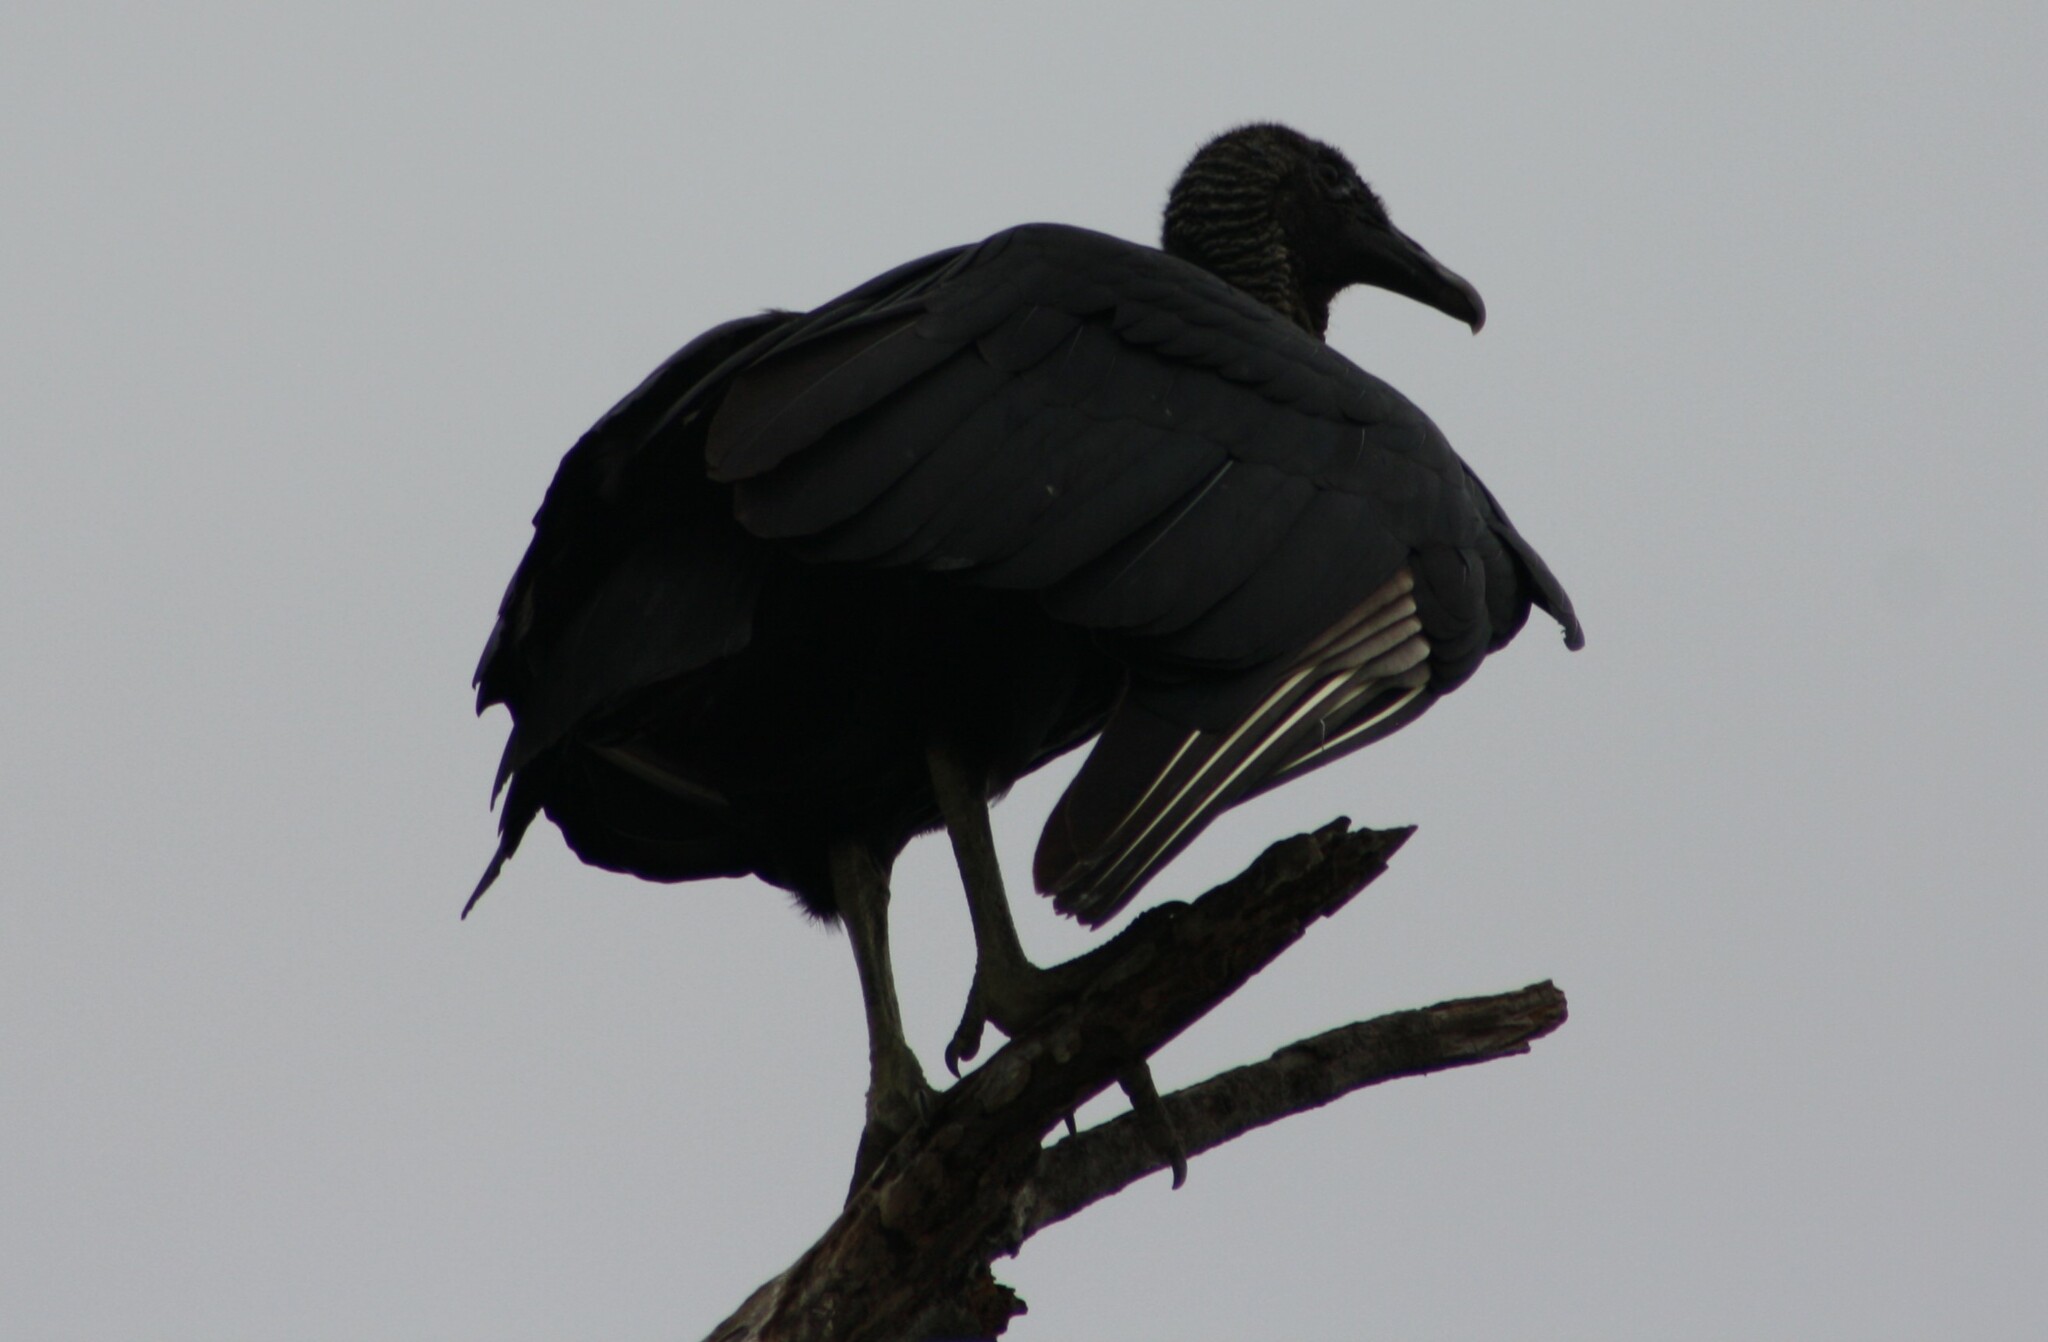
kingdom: Animalia
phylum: Chordata
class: Aves
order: Accipitriformes
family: Cathartidae
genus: Coragyps
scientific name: Coragyps atratus
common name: Black vulture
